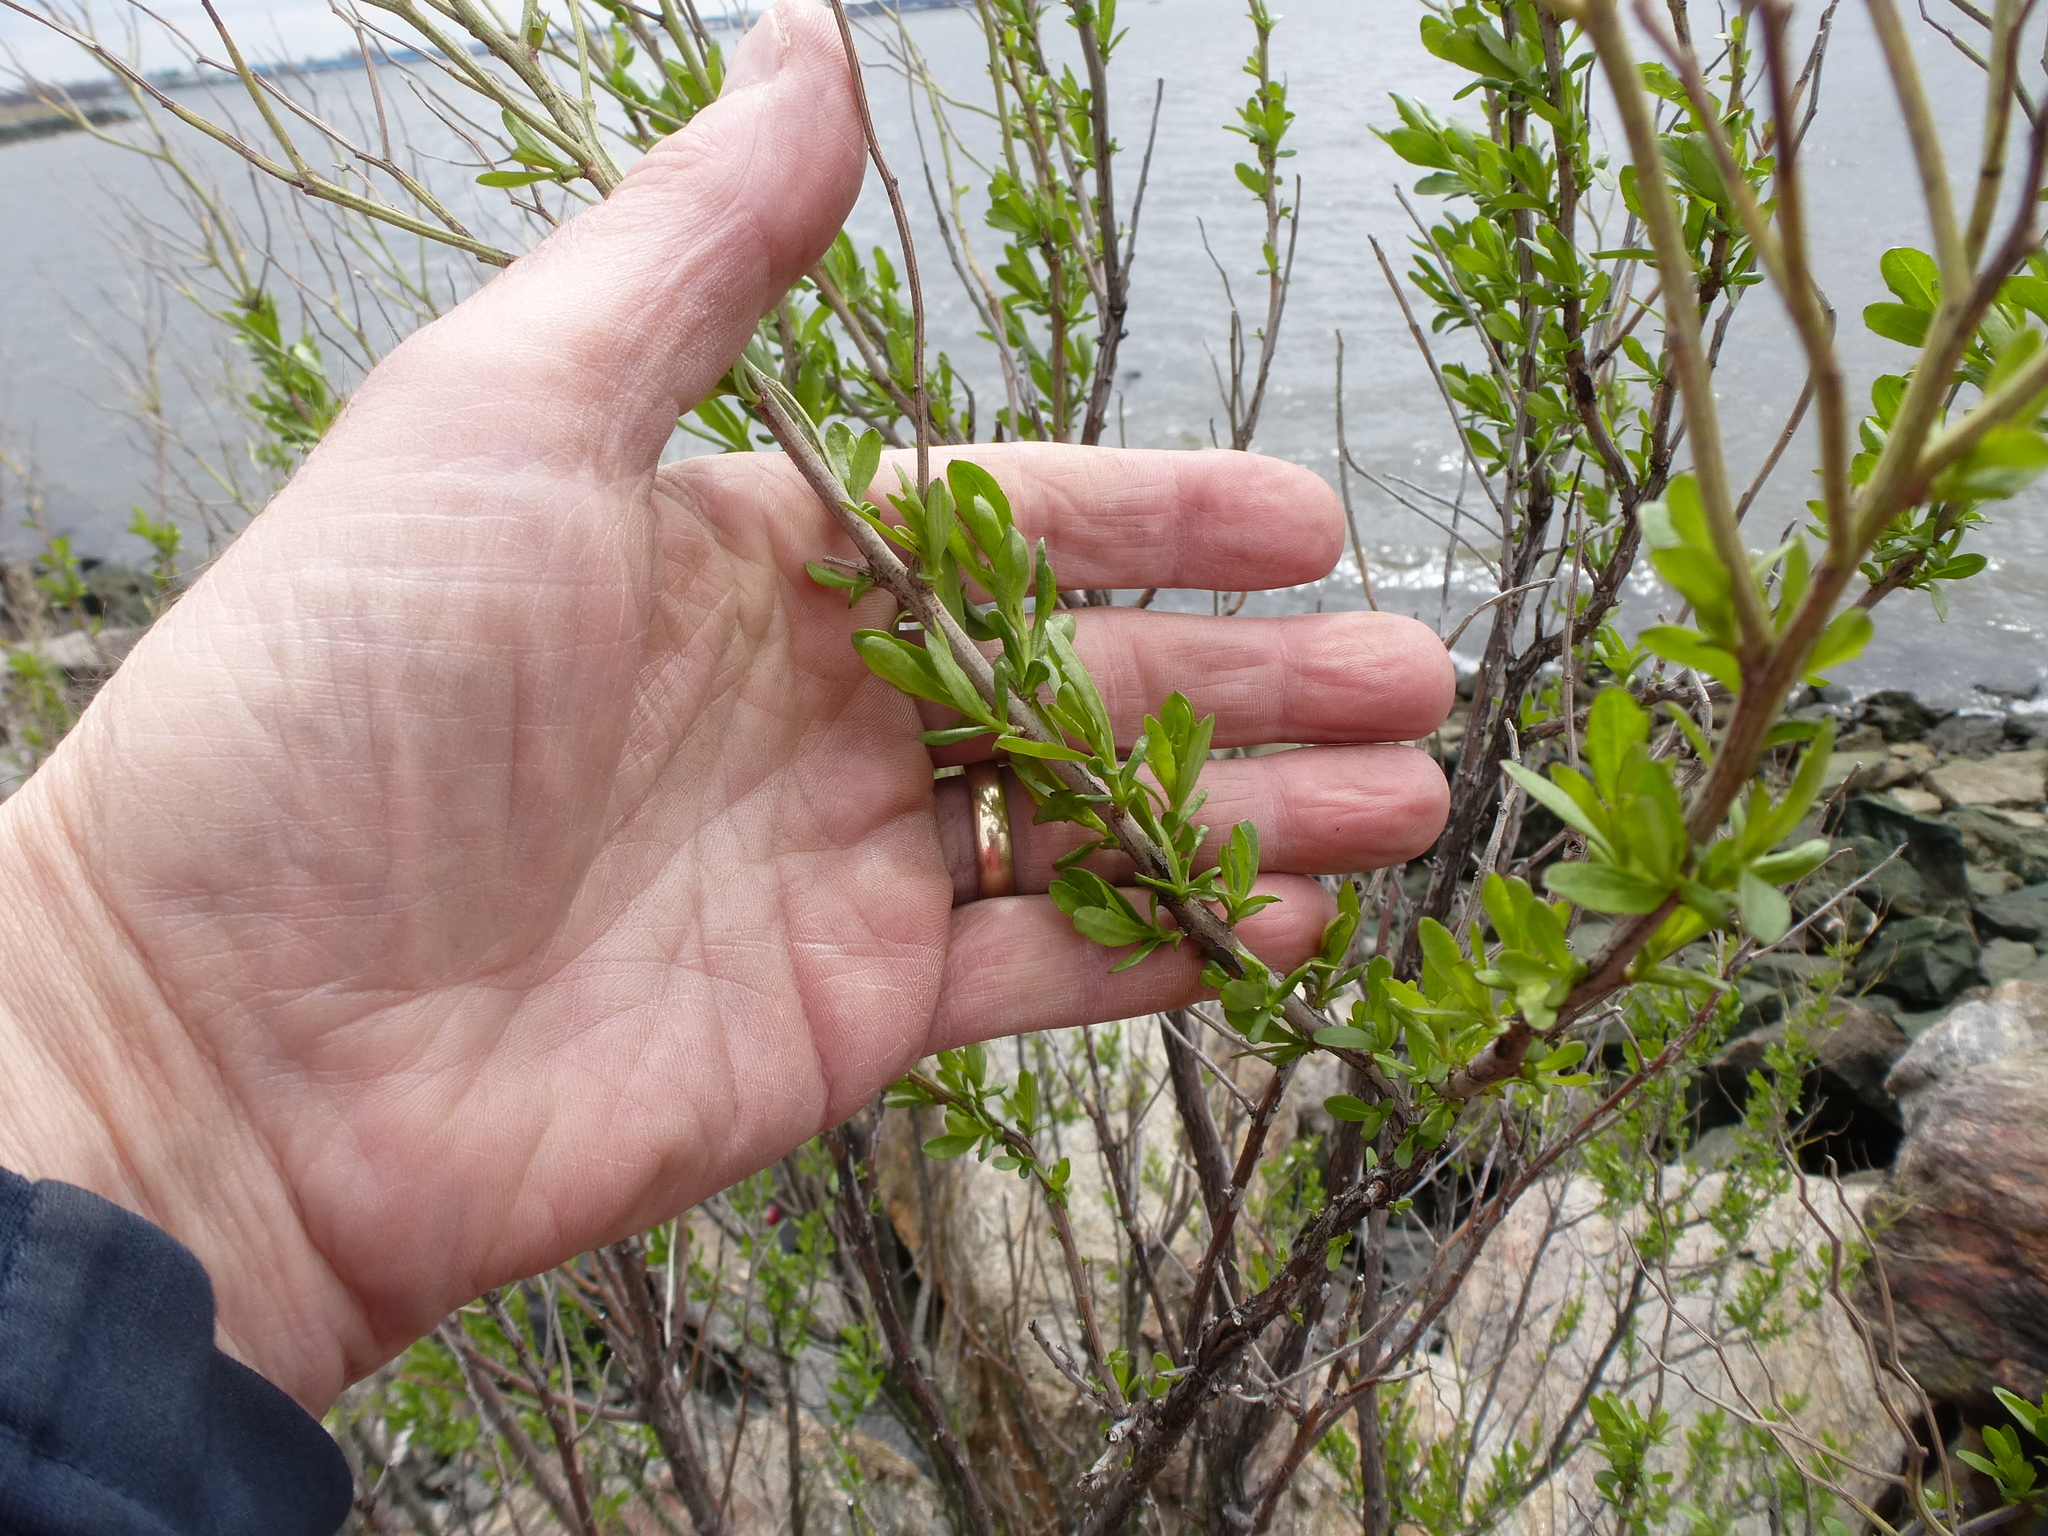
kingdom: Plantae
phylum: Tracheophyta
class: Magnoliopsida
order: Asterales
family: Asteraceae
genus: Baccharis
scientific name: Baccharis halimifolia
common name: Eastern baccharis
